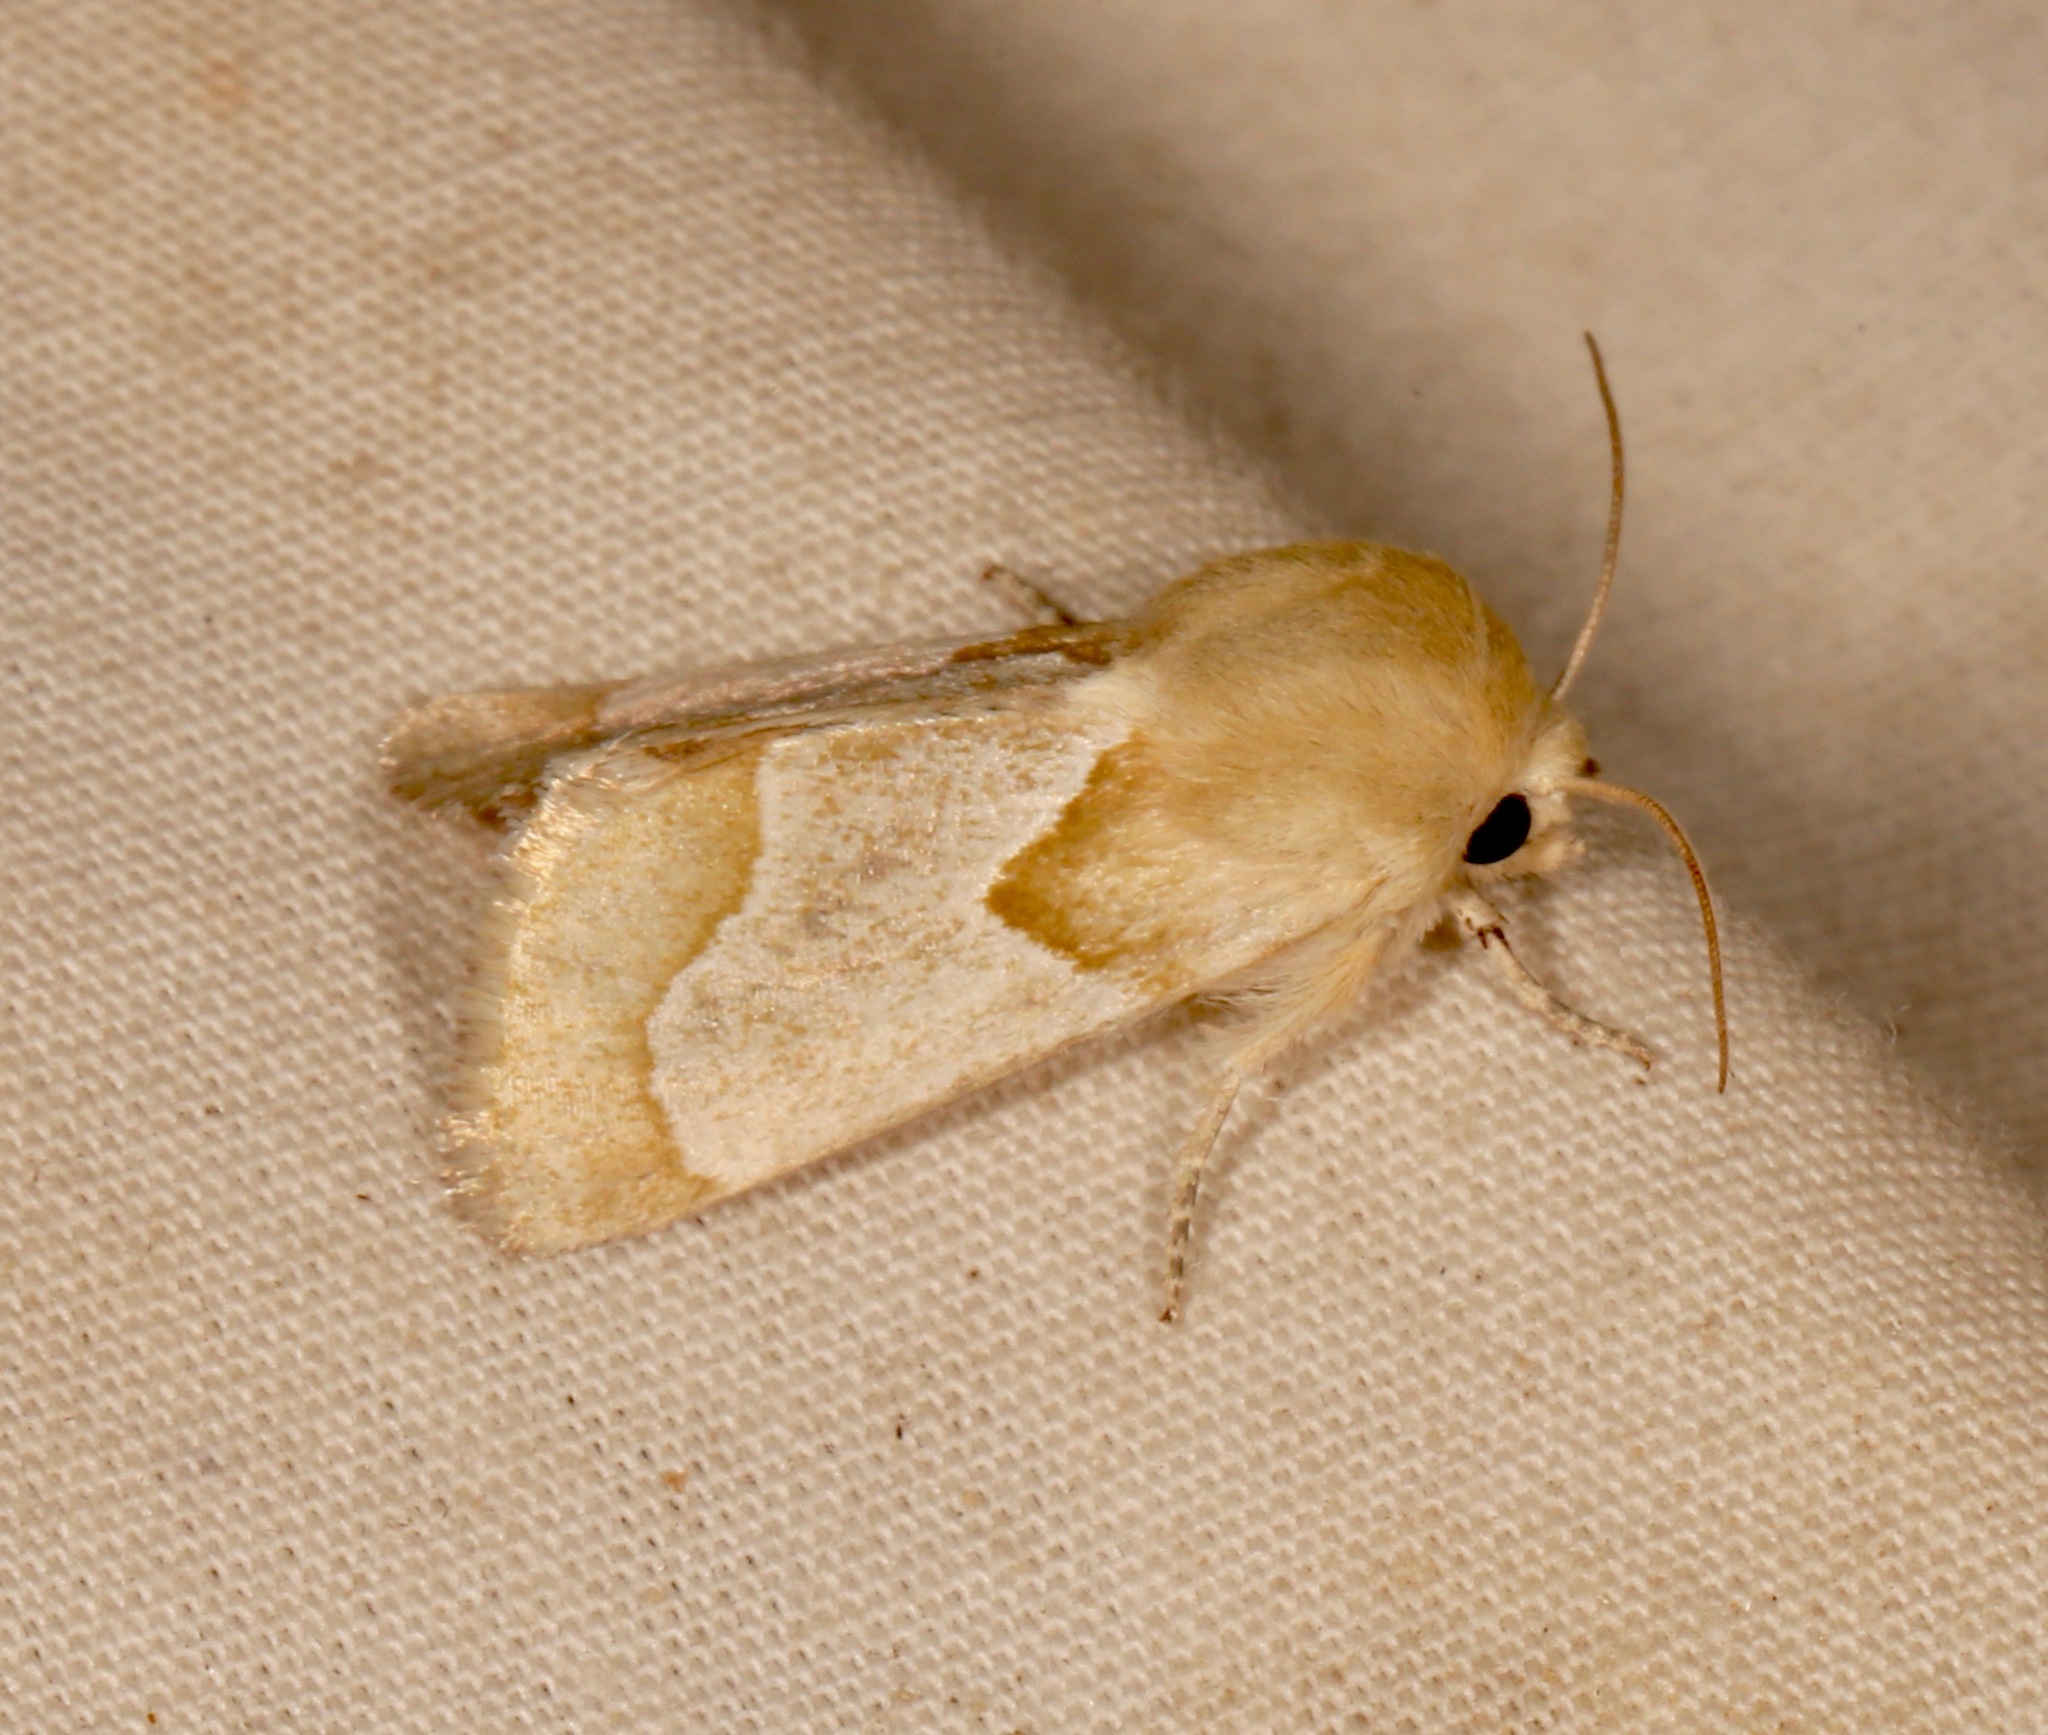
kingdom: Animalia
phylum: Arthropoda
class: Insecta
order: Lepidoptera
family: Noctuidae
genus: Schinia
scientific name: Schinia ligeae
